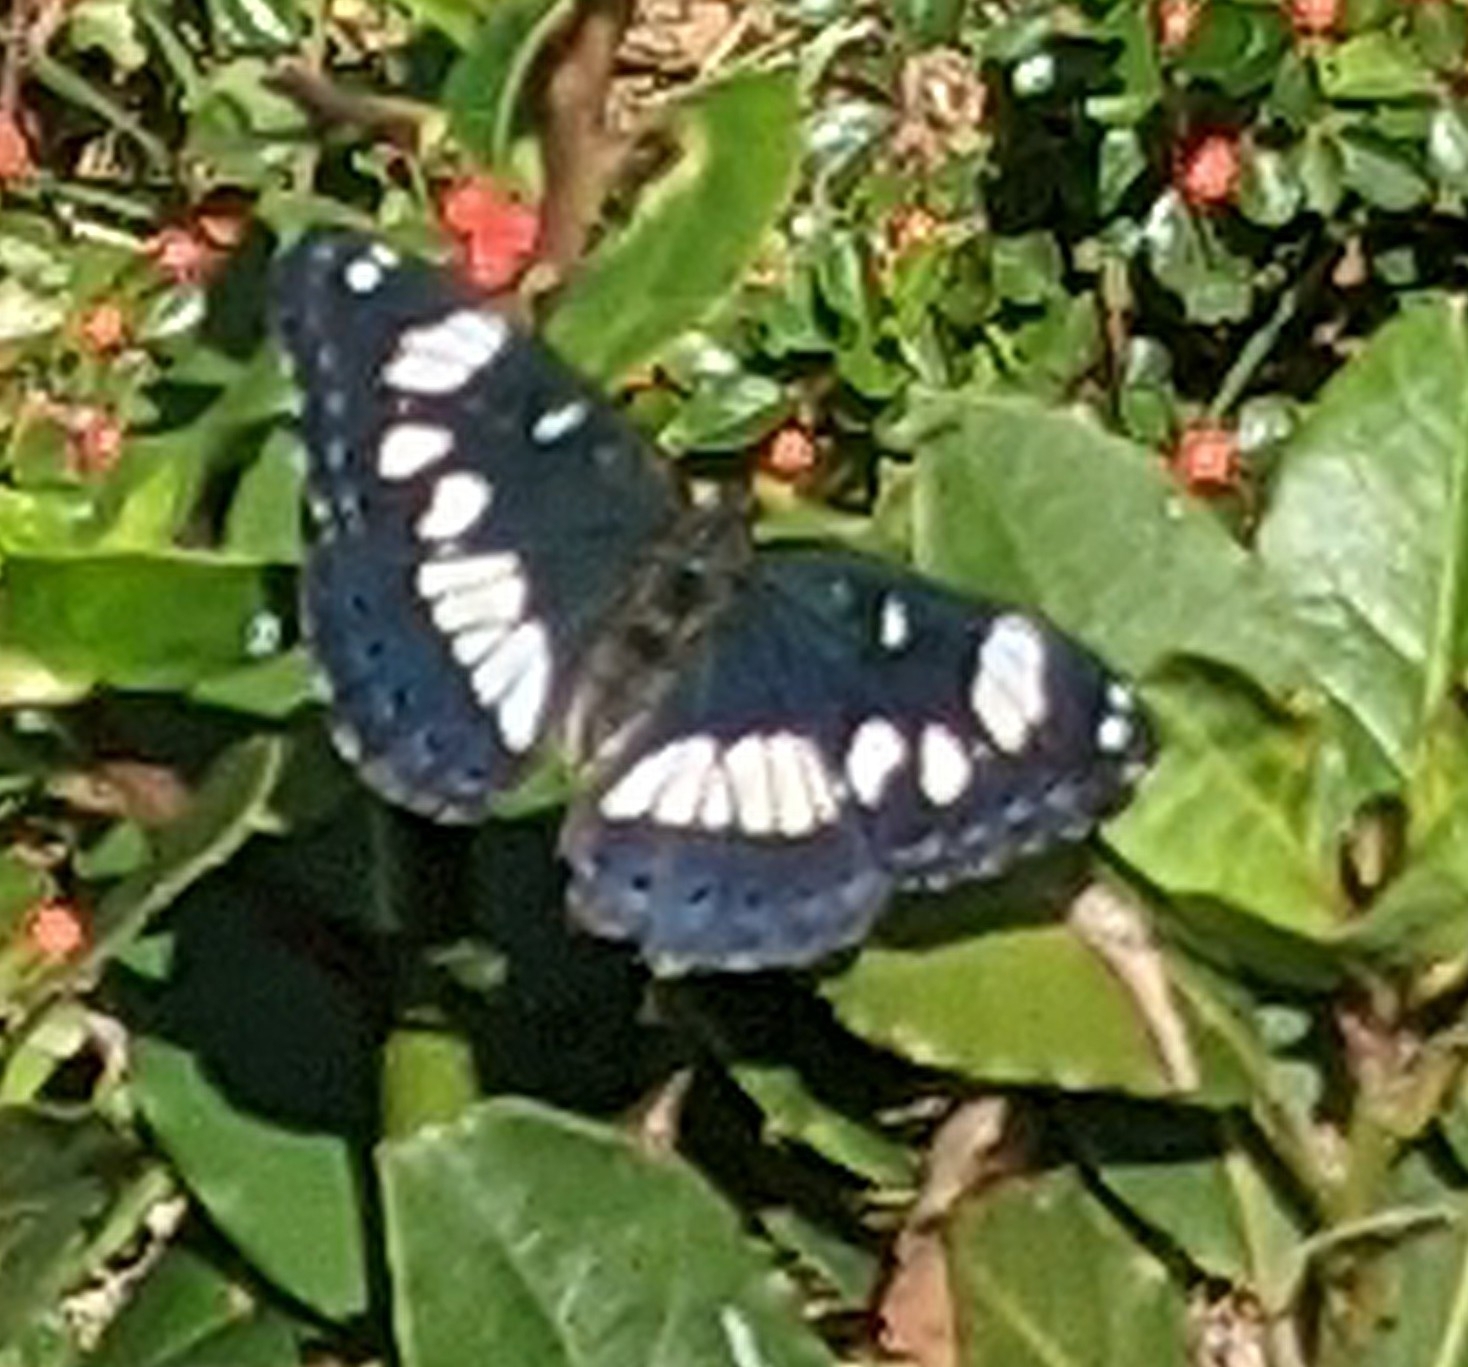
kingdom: Animalia
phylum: Arthropoda
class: Insecta
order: Lepidoptera
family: Nymphalidae
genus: Limenitis
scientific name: Limenitis reducta
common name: Southern white admiral
